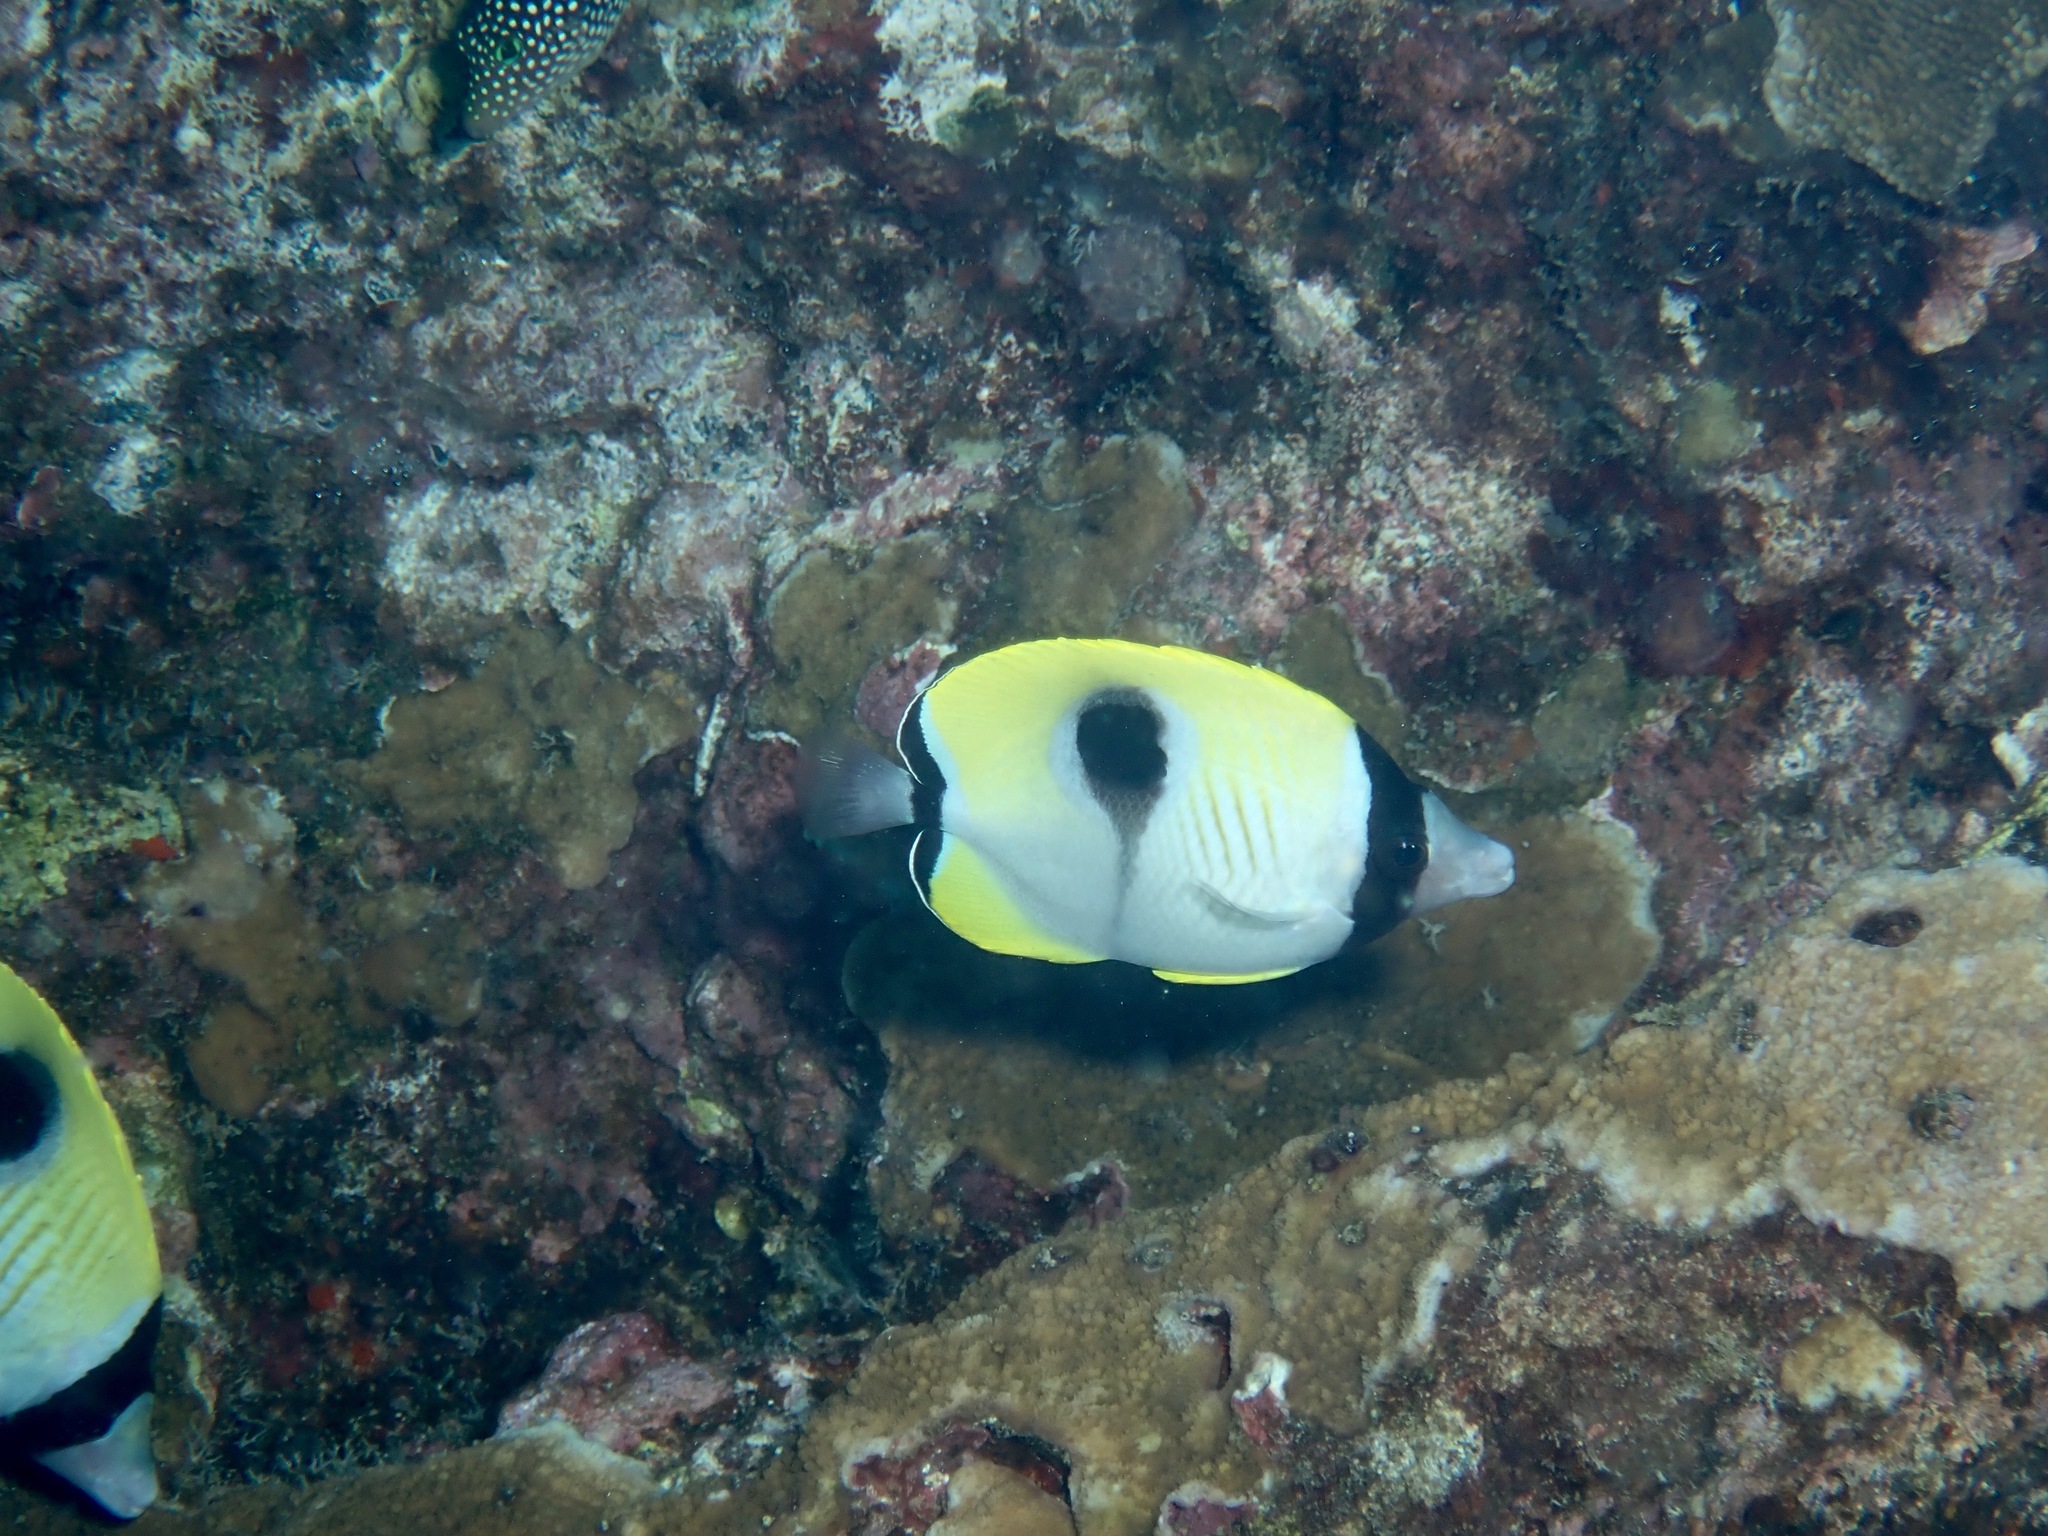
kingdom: Animalia
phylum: Chordata
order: Perciformes
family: Chaetodontidae
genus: Chaetodon
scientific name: Chaetodon unimaculatus
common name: Teardrop butterflyfish
